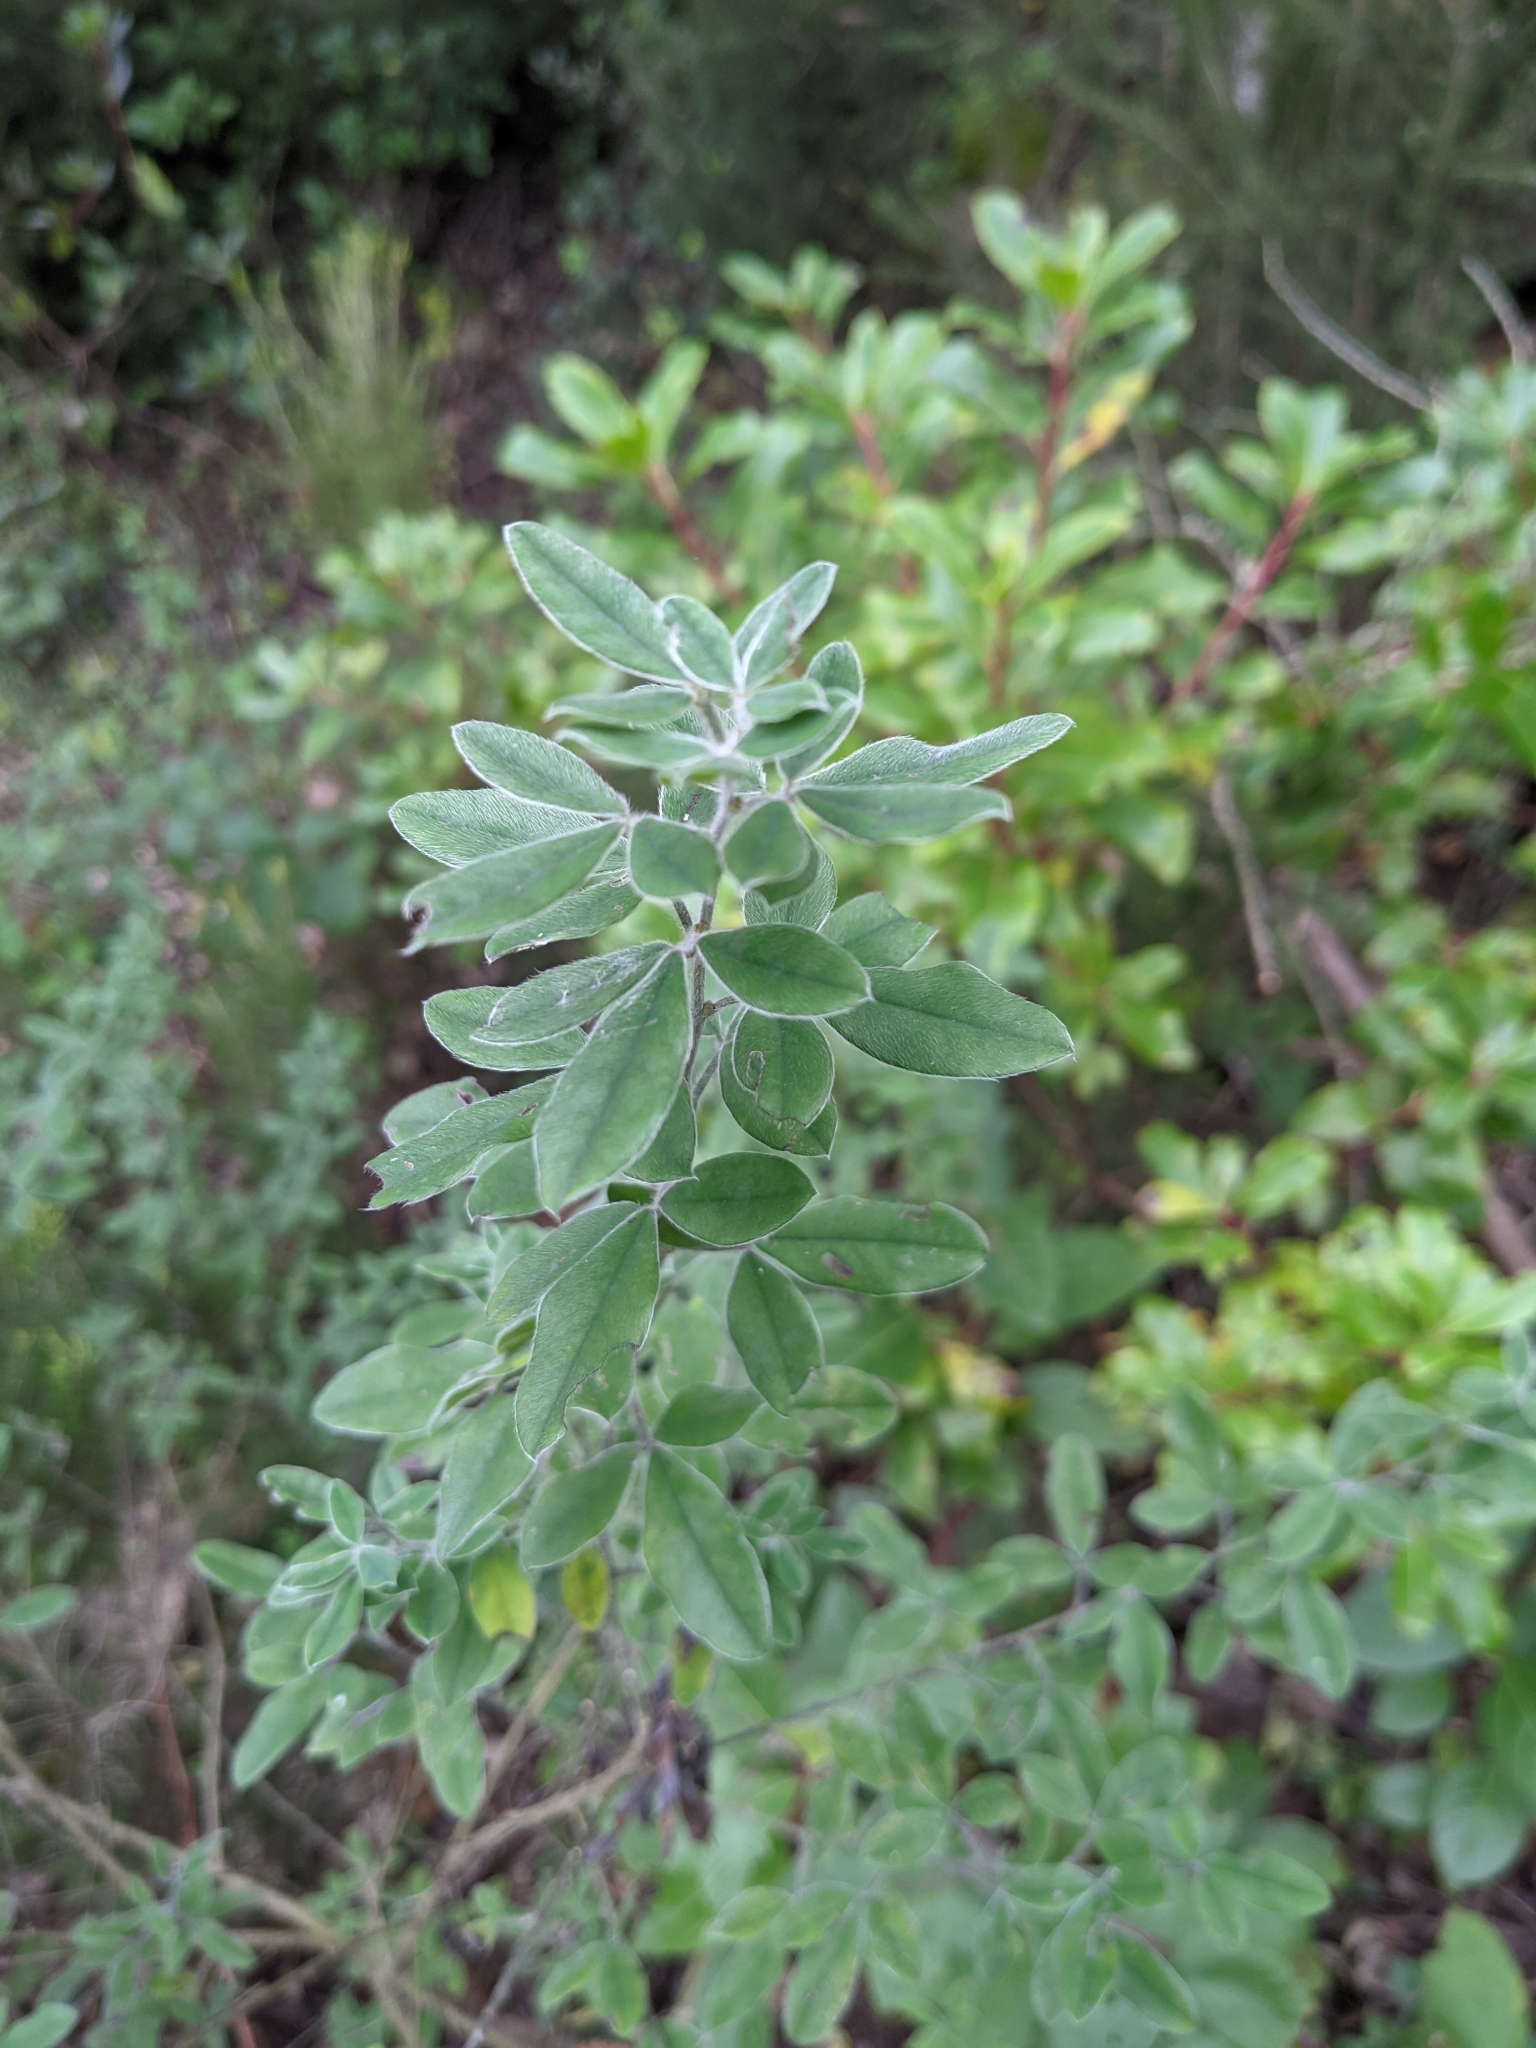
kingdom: Plantae
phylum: Tracheophyta
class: Magnoliopsida
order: Fabales
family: Fabaceae
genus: Cytisus
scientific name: Cytisus villosus
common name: Hairybroom
